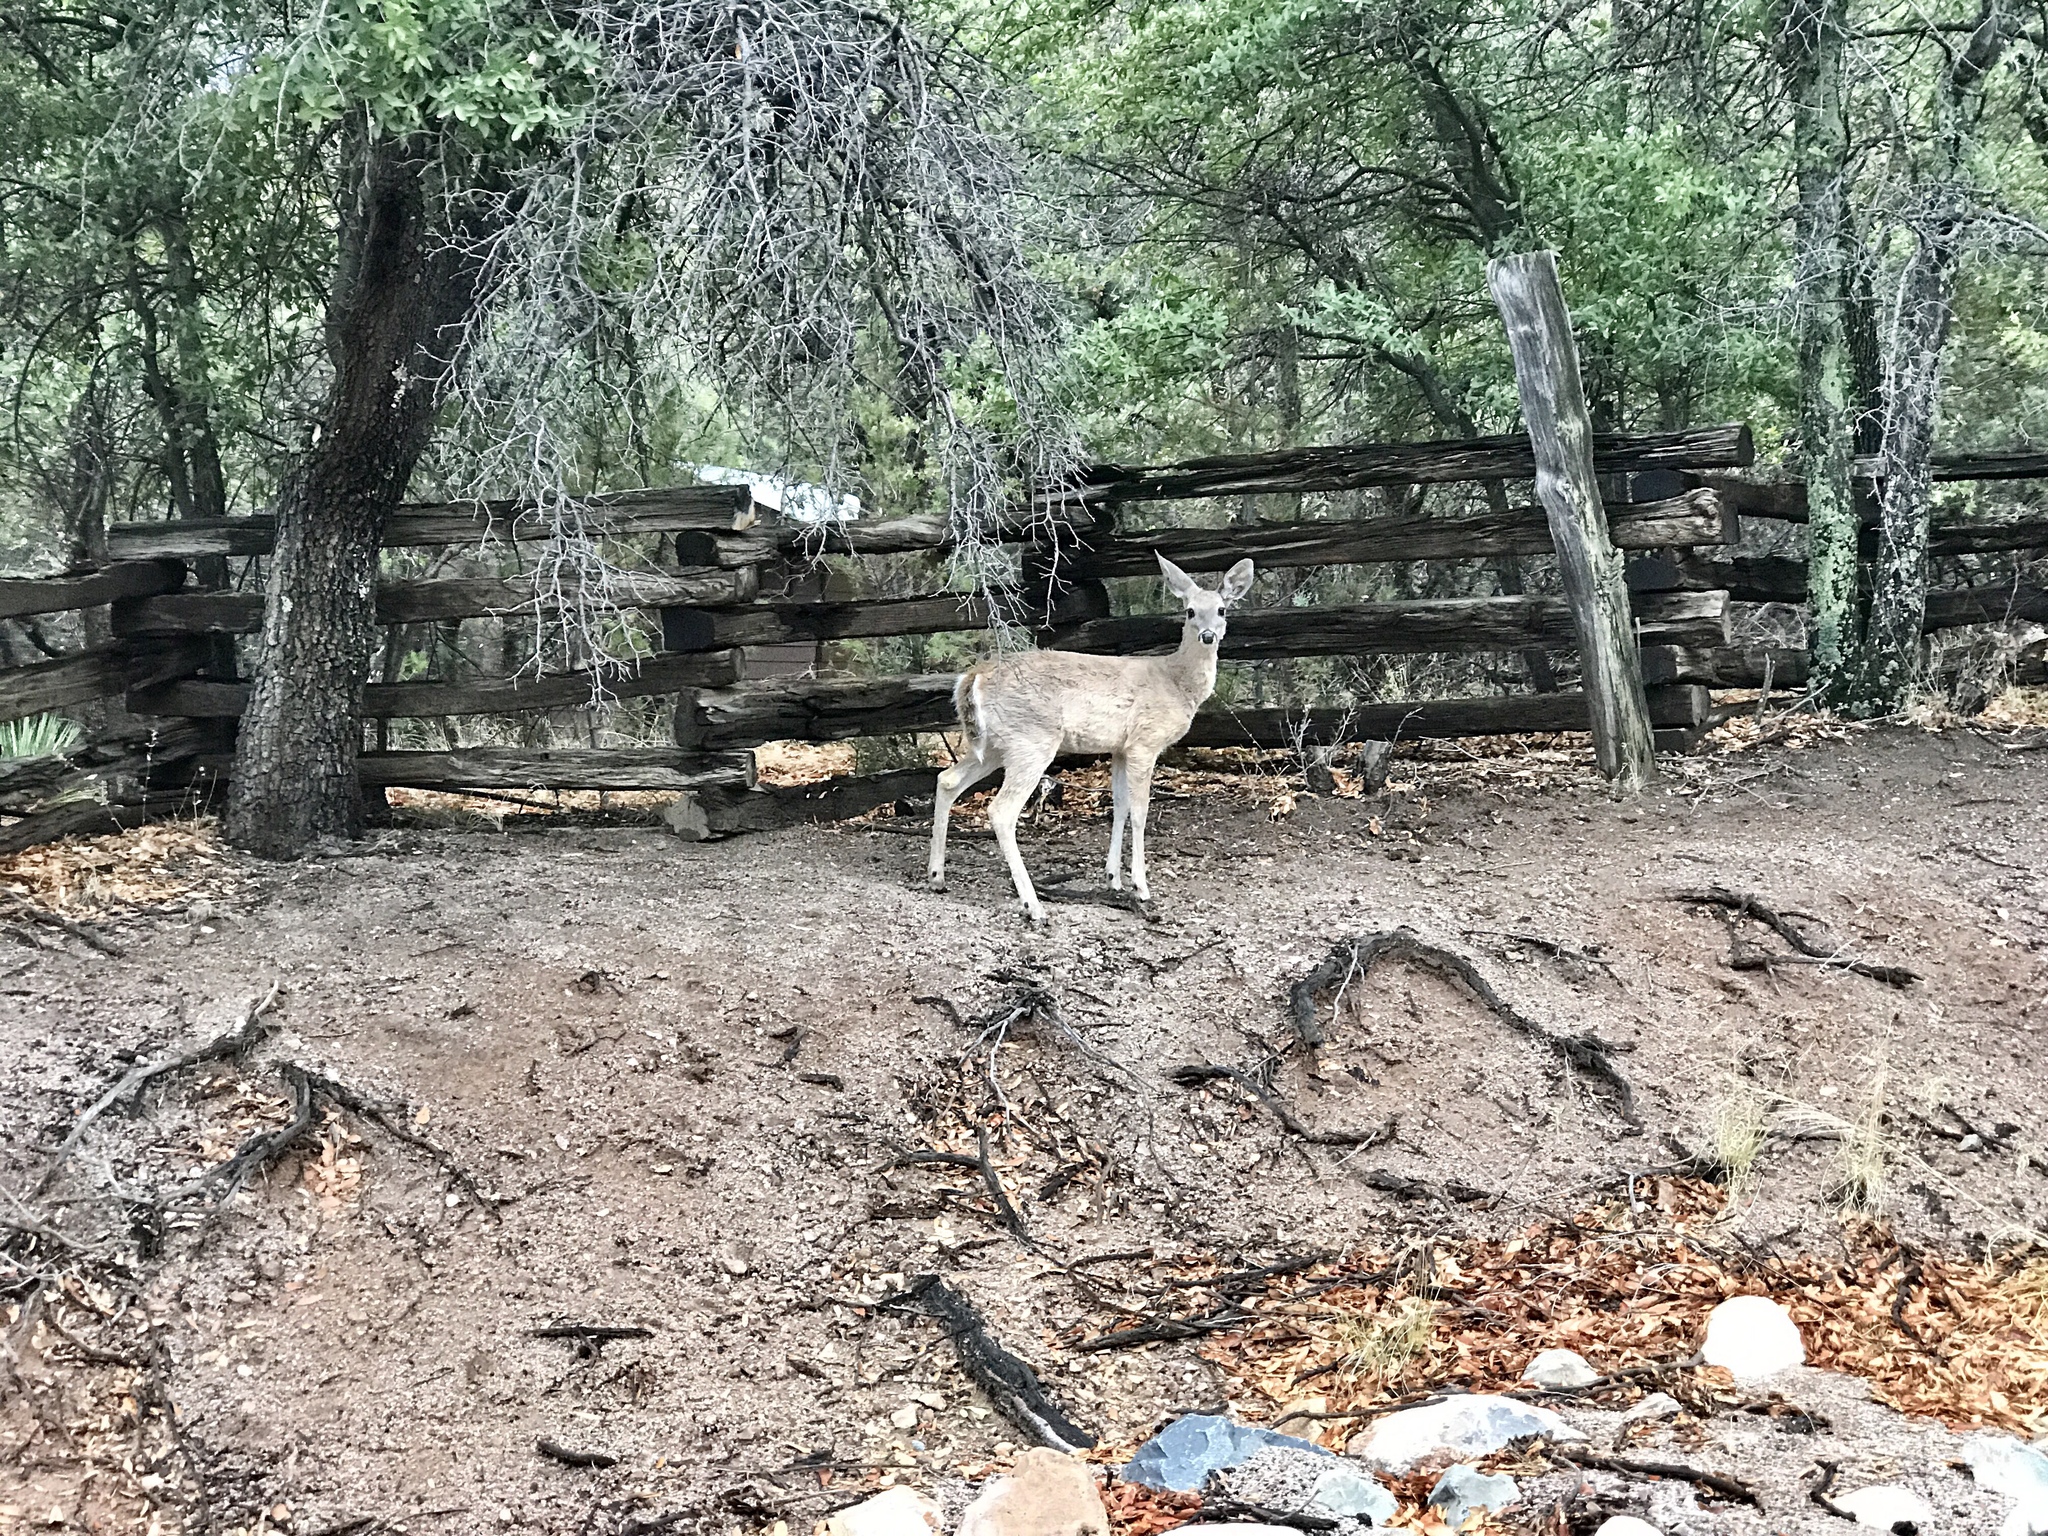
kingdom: Animalia
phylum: Chordata
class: Mammalia
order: Artiodactyla
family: Cervidae
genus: Odocoileus
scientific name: Odocoileus virginianus
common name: White-tailed deer
